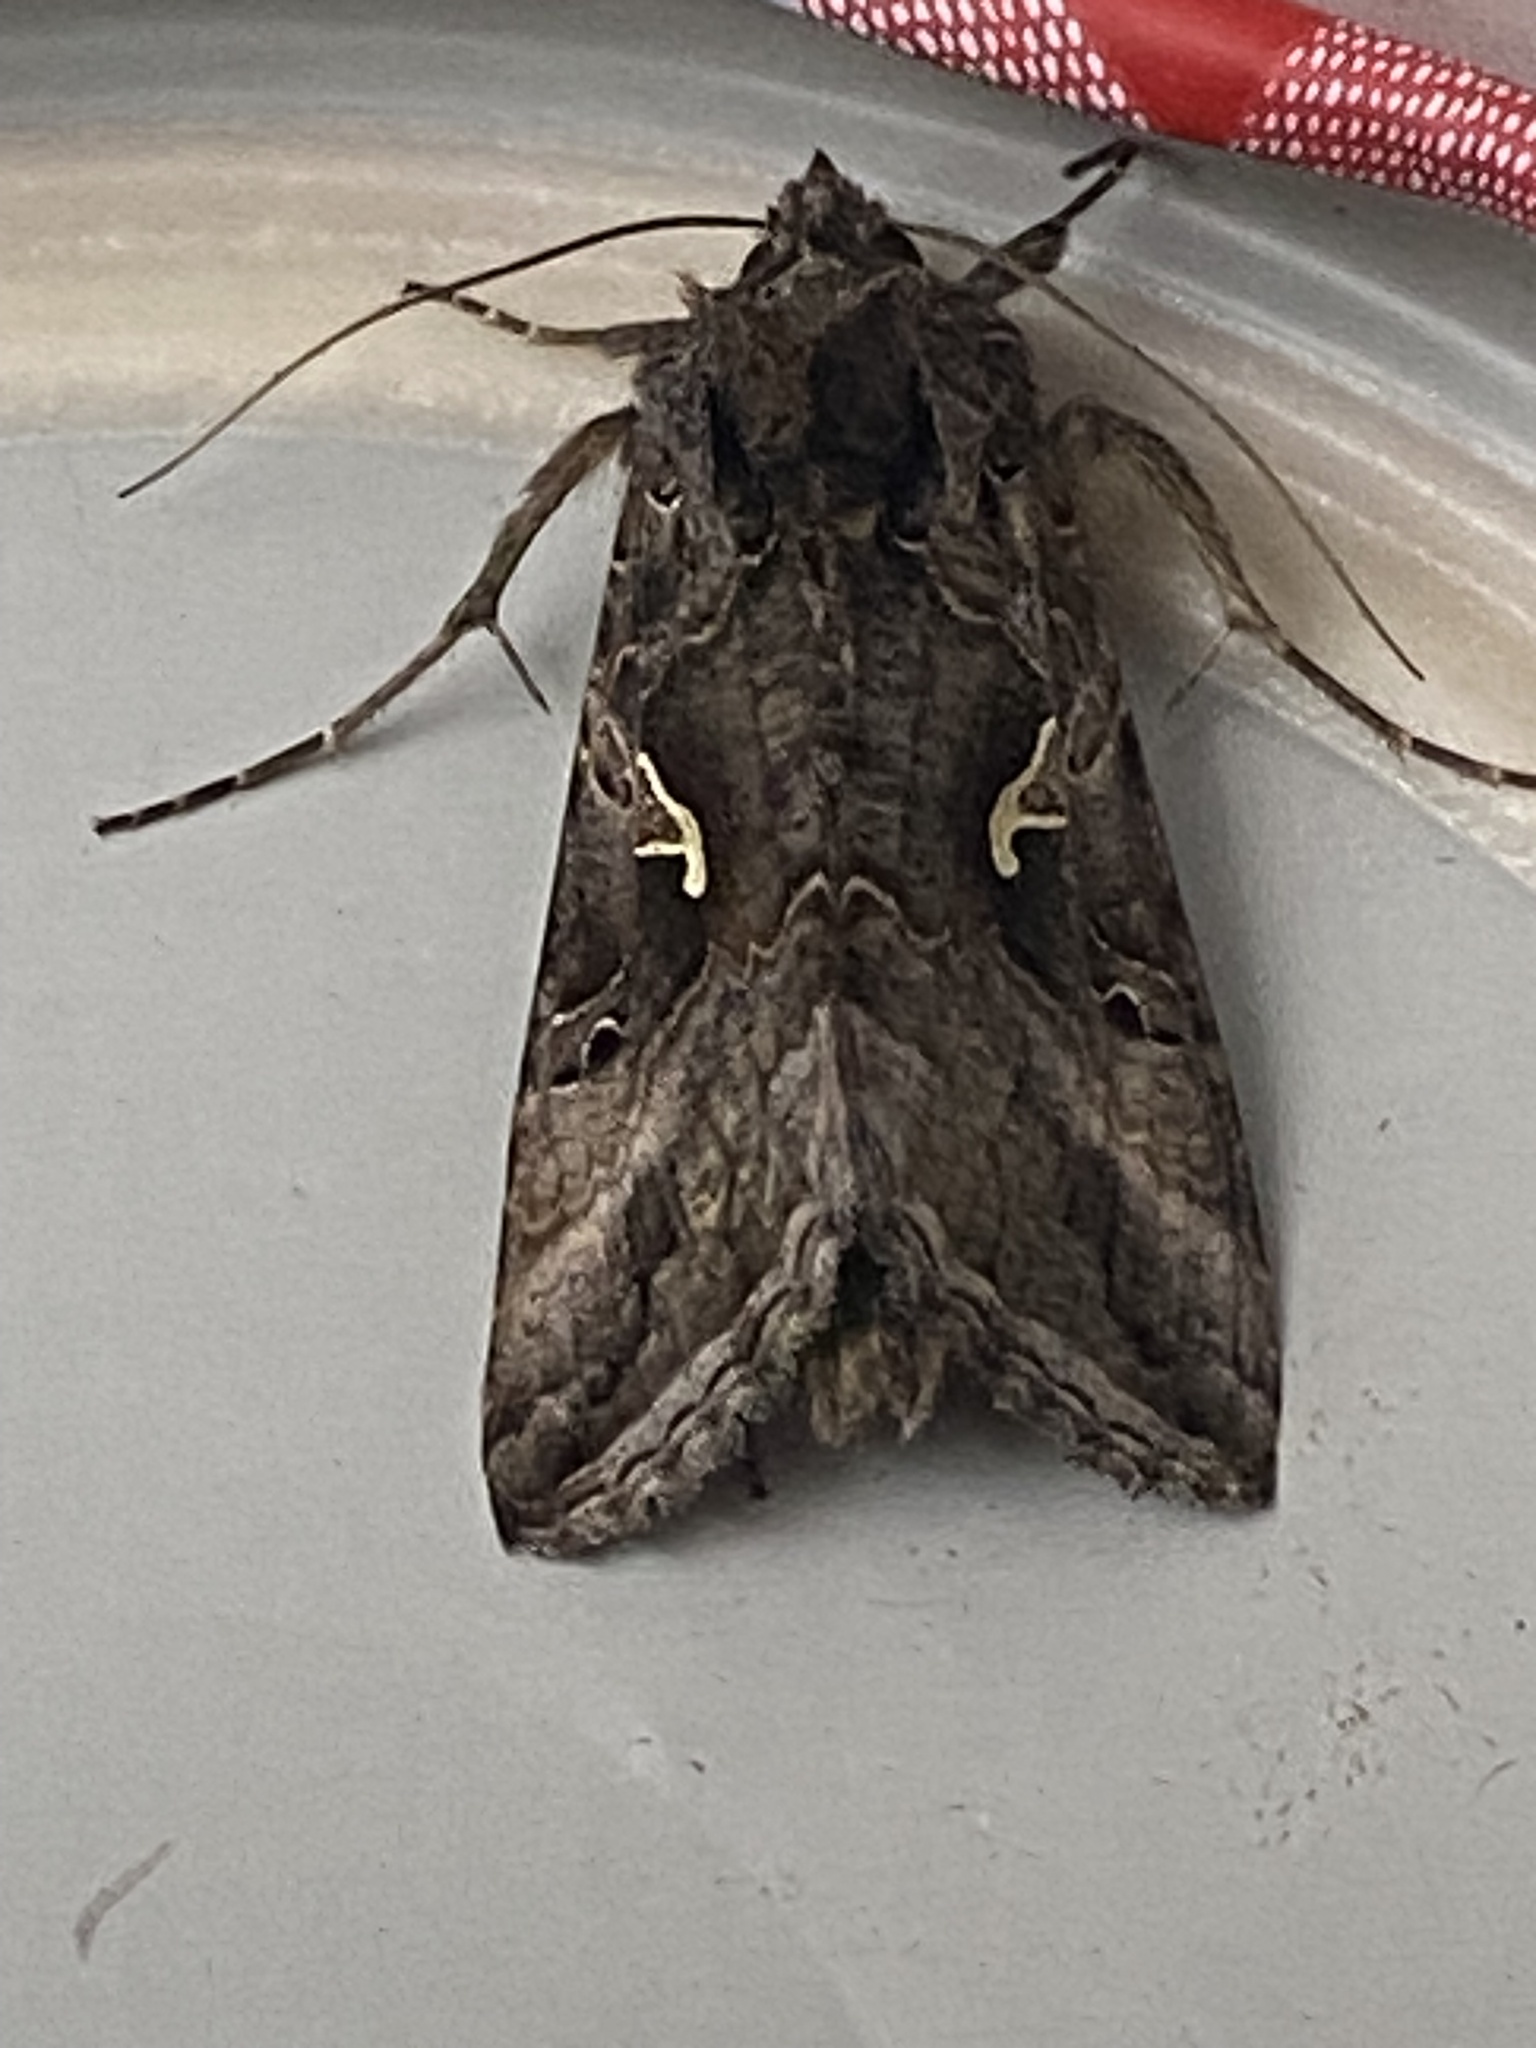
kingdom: Animalia
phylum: Arthropoda
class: Insecta
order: Lepidoptera
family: Noctuidae
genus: Autographa
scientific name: Autographa gamma
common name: Silver y
